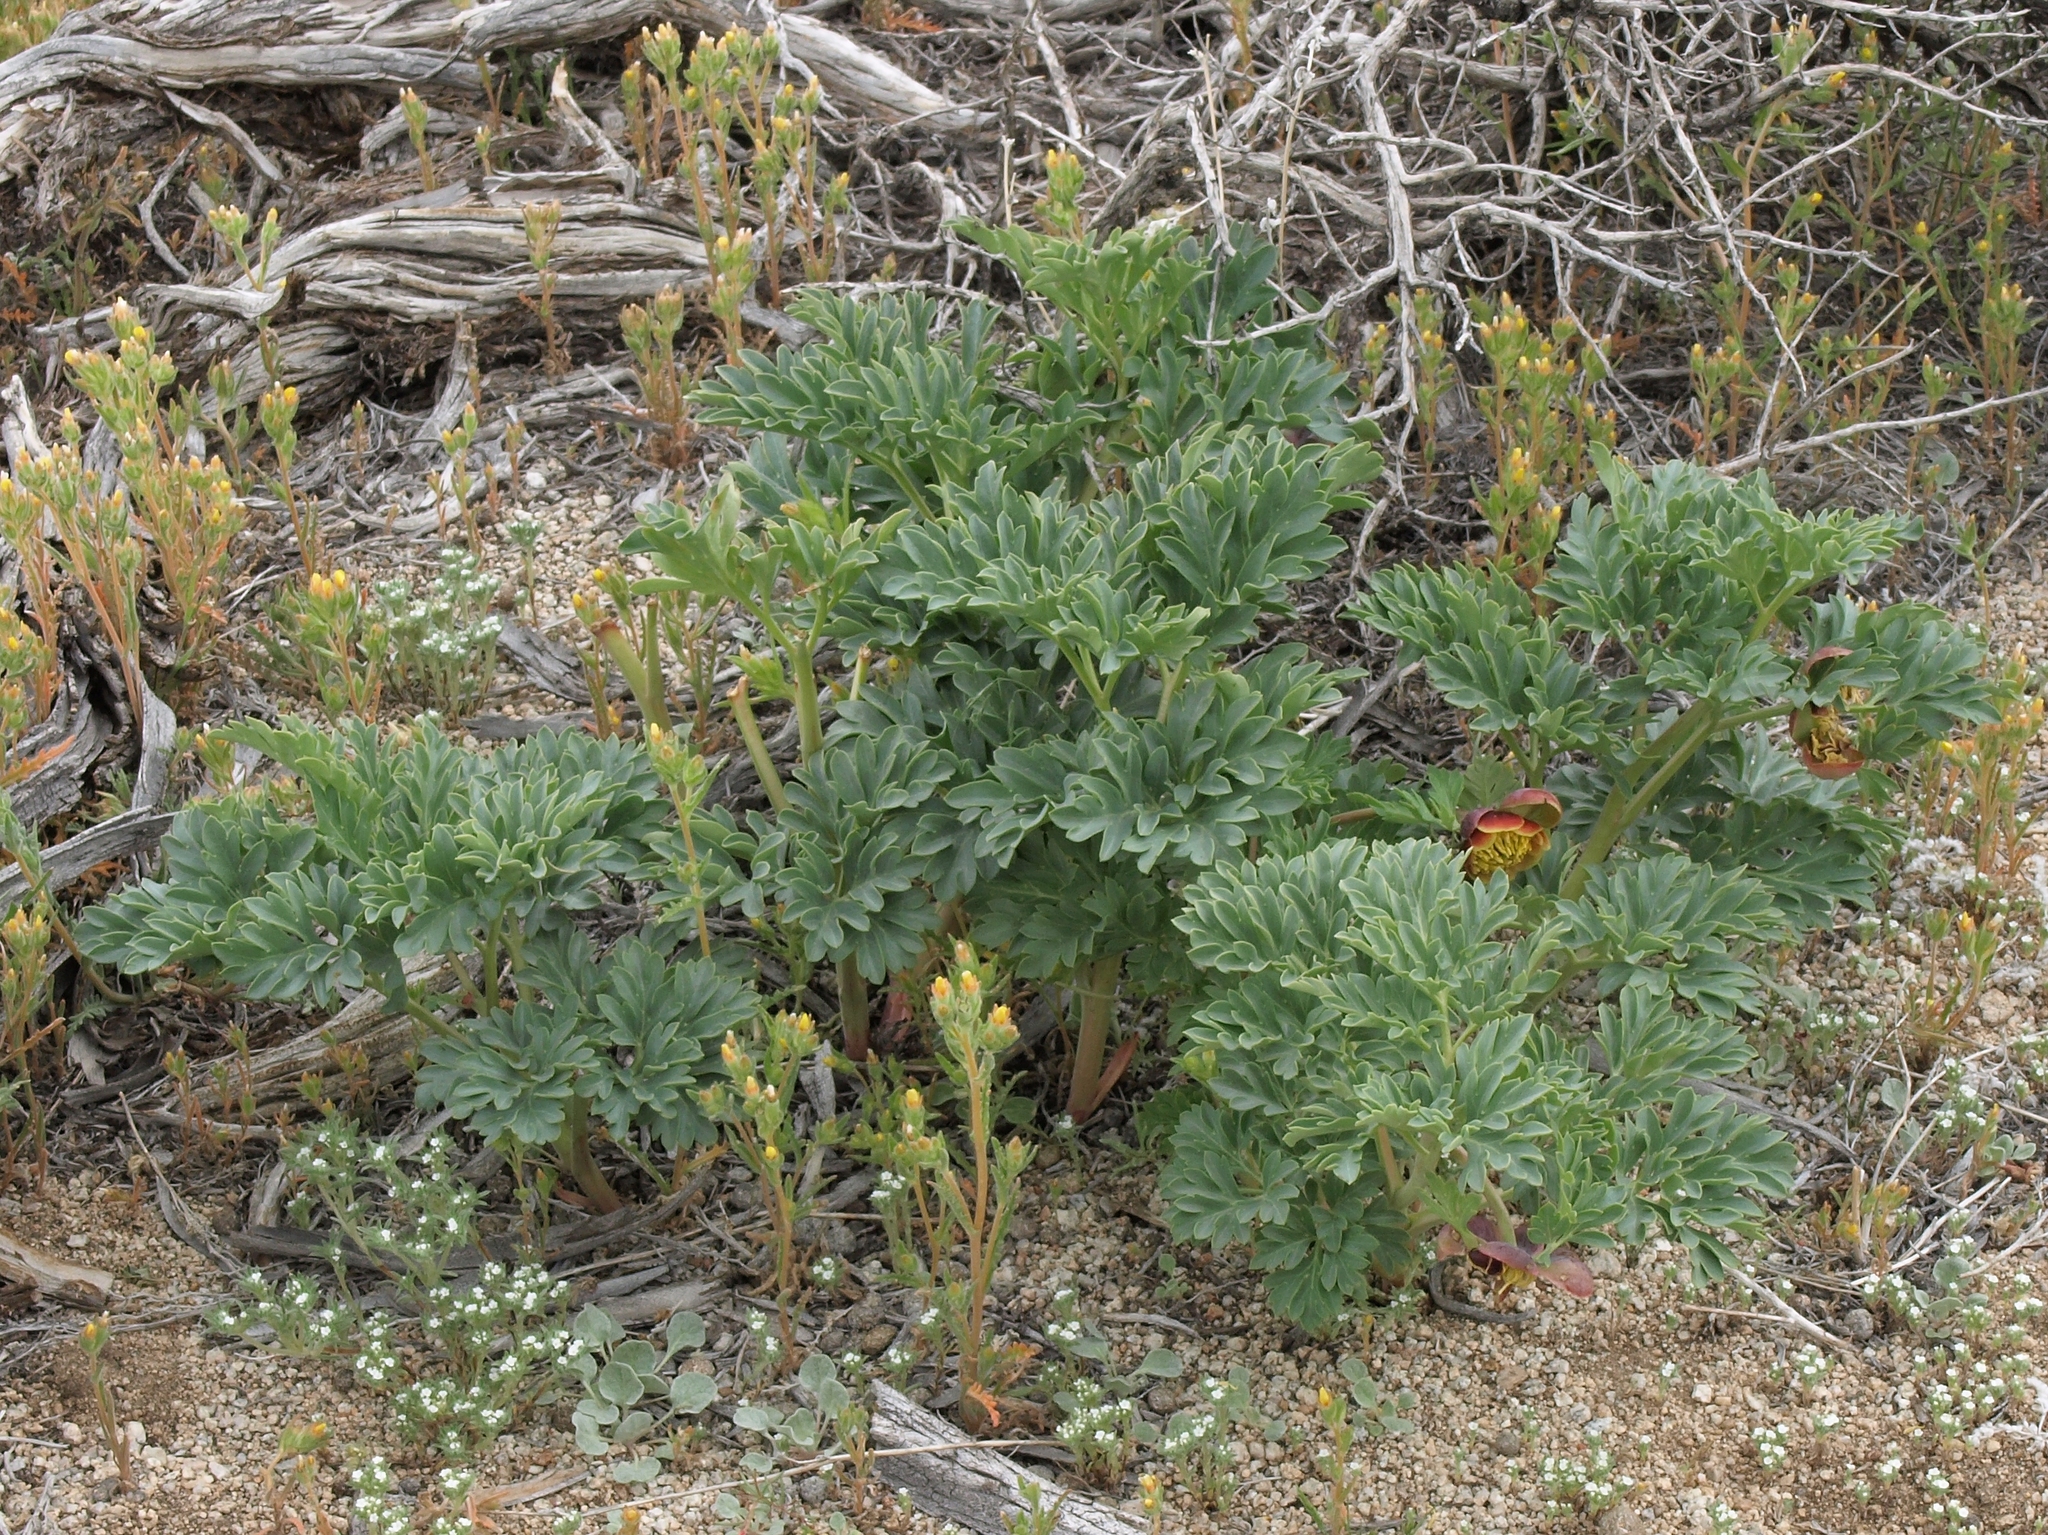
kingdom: Plantae
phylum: Tracheophyta
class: Magnoliopsida
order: Saxifragales
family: Paeoniaceae
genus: Paeonia
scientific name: Paeonia brownii
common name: Brown's peony
